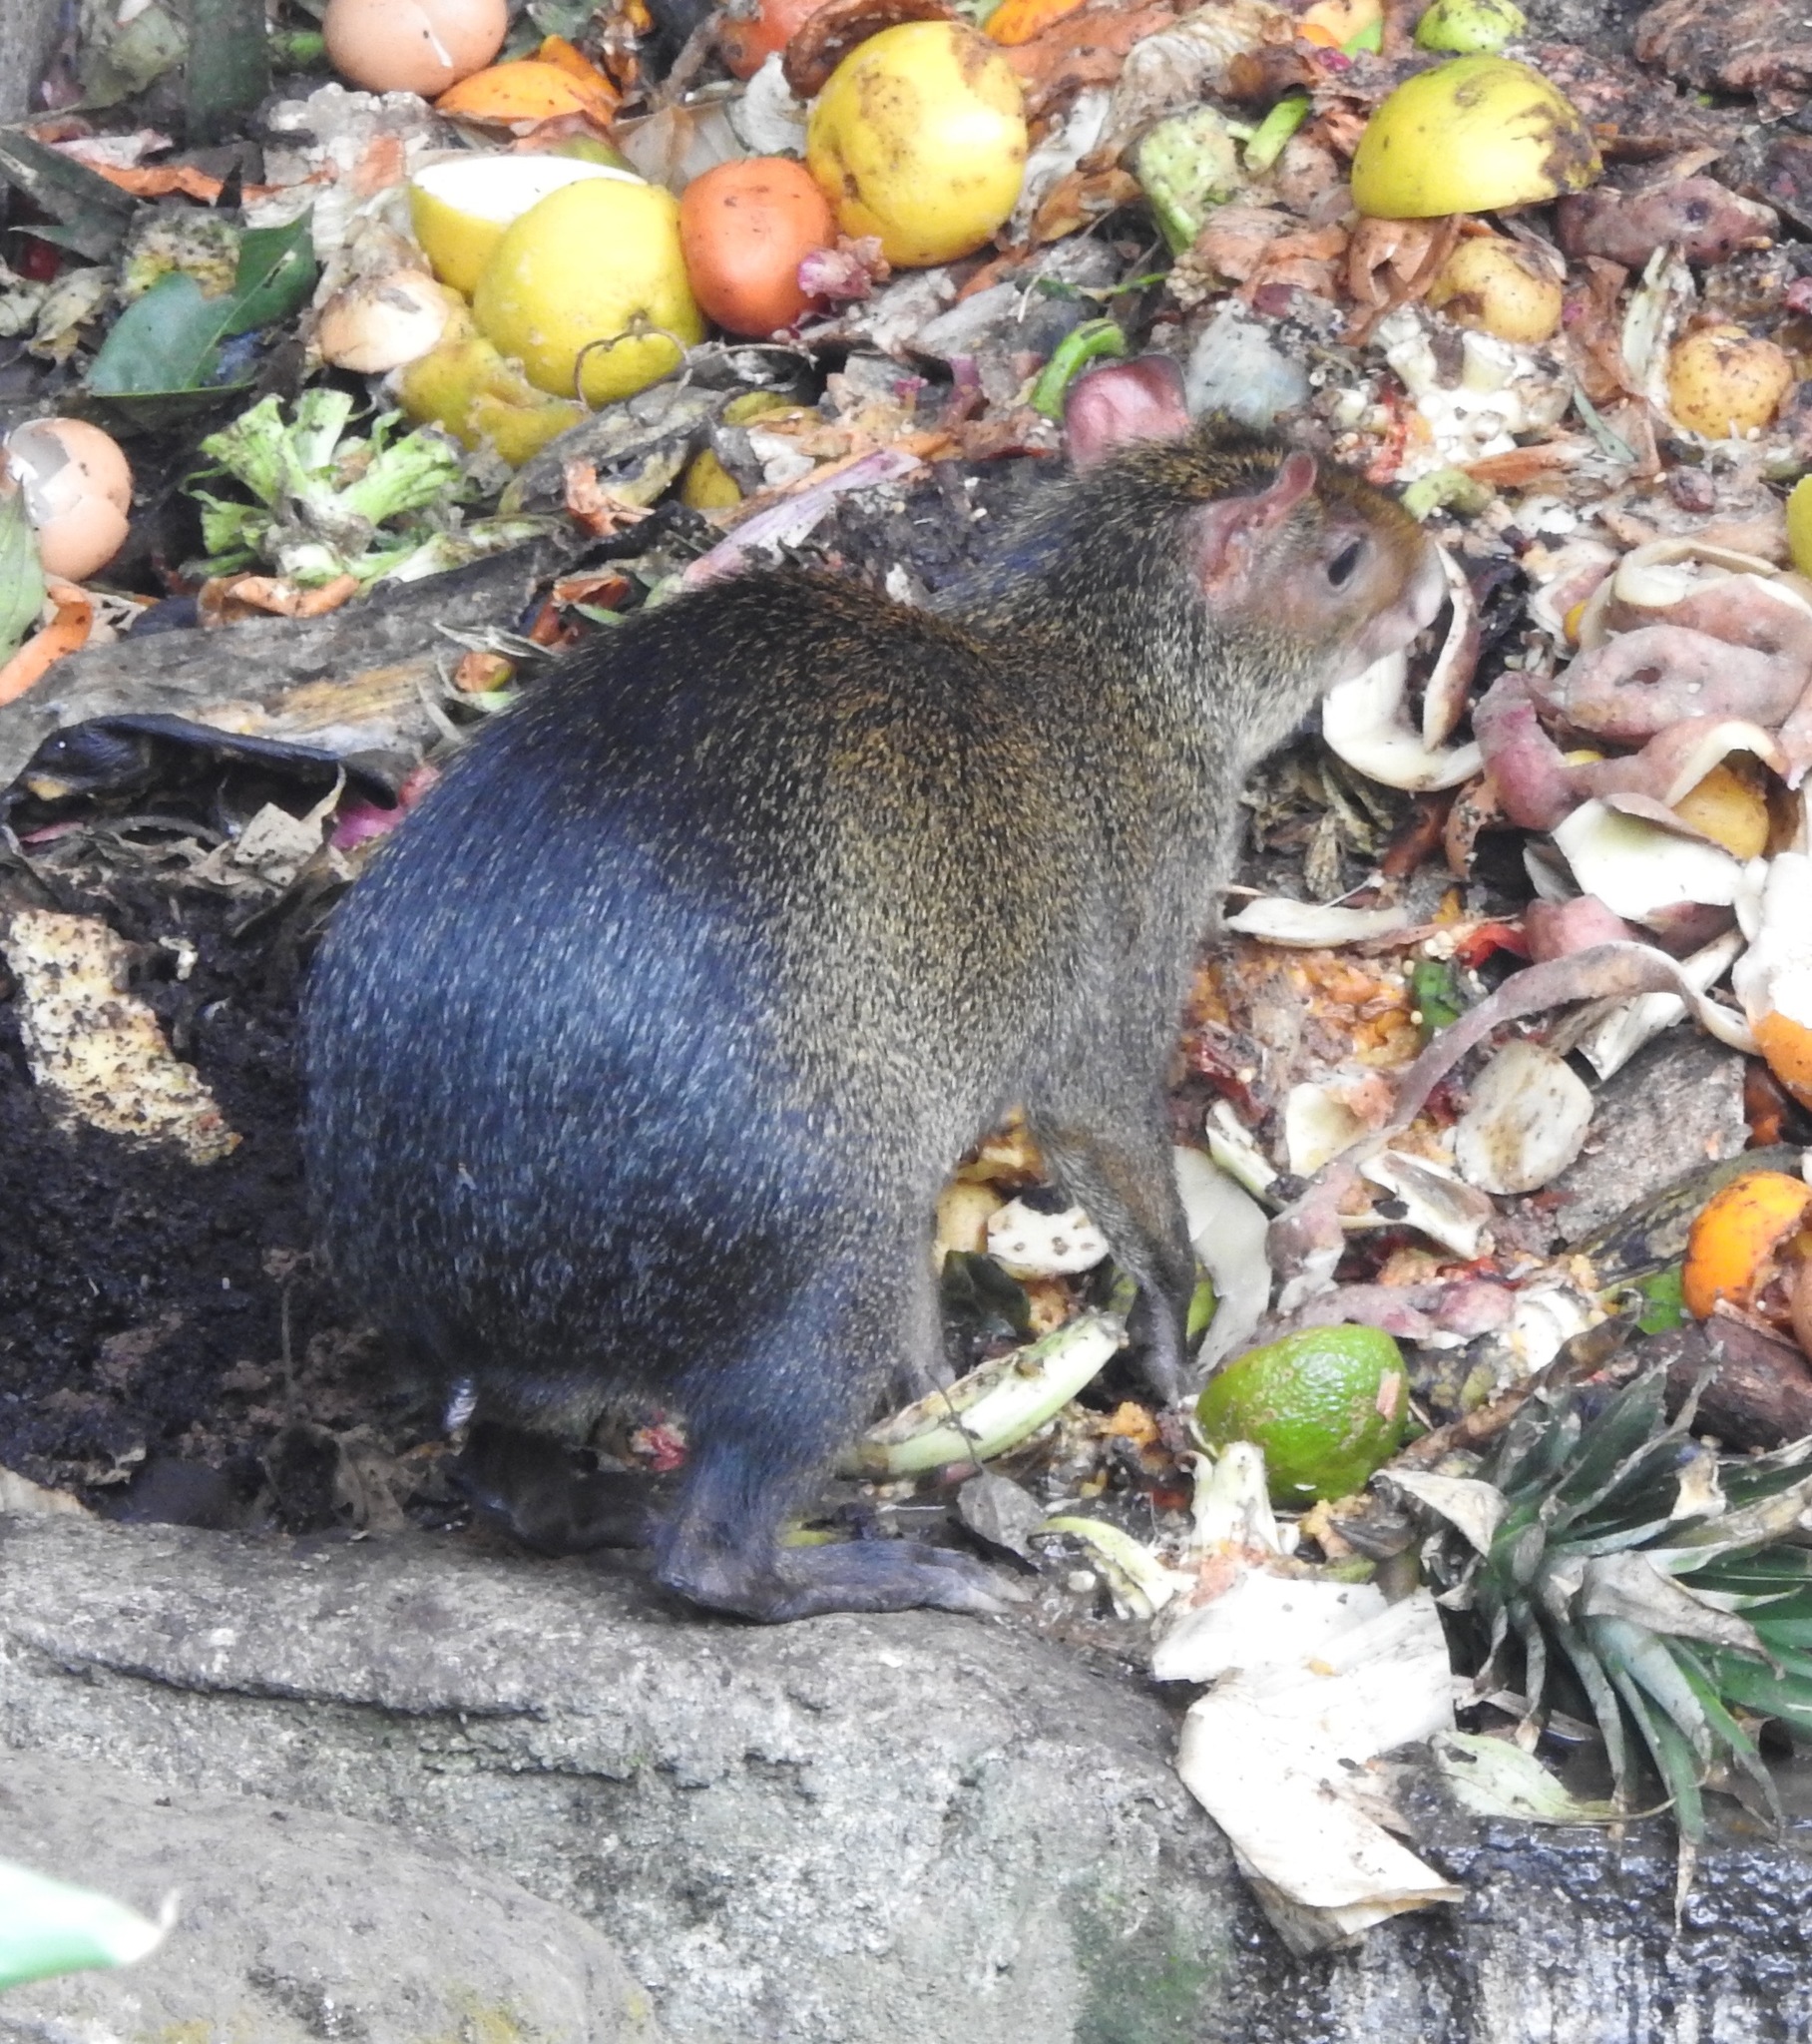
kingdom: Animalia
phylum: Chordata
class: Mammalia
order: Rodentia
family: Dasyproctidae
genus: Dasyprocta
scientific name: Dasyprocta punctata
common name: Central american agouti
